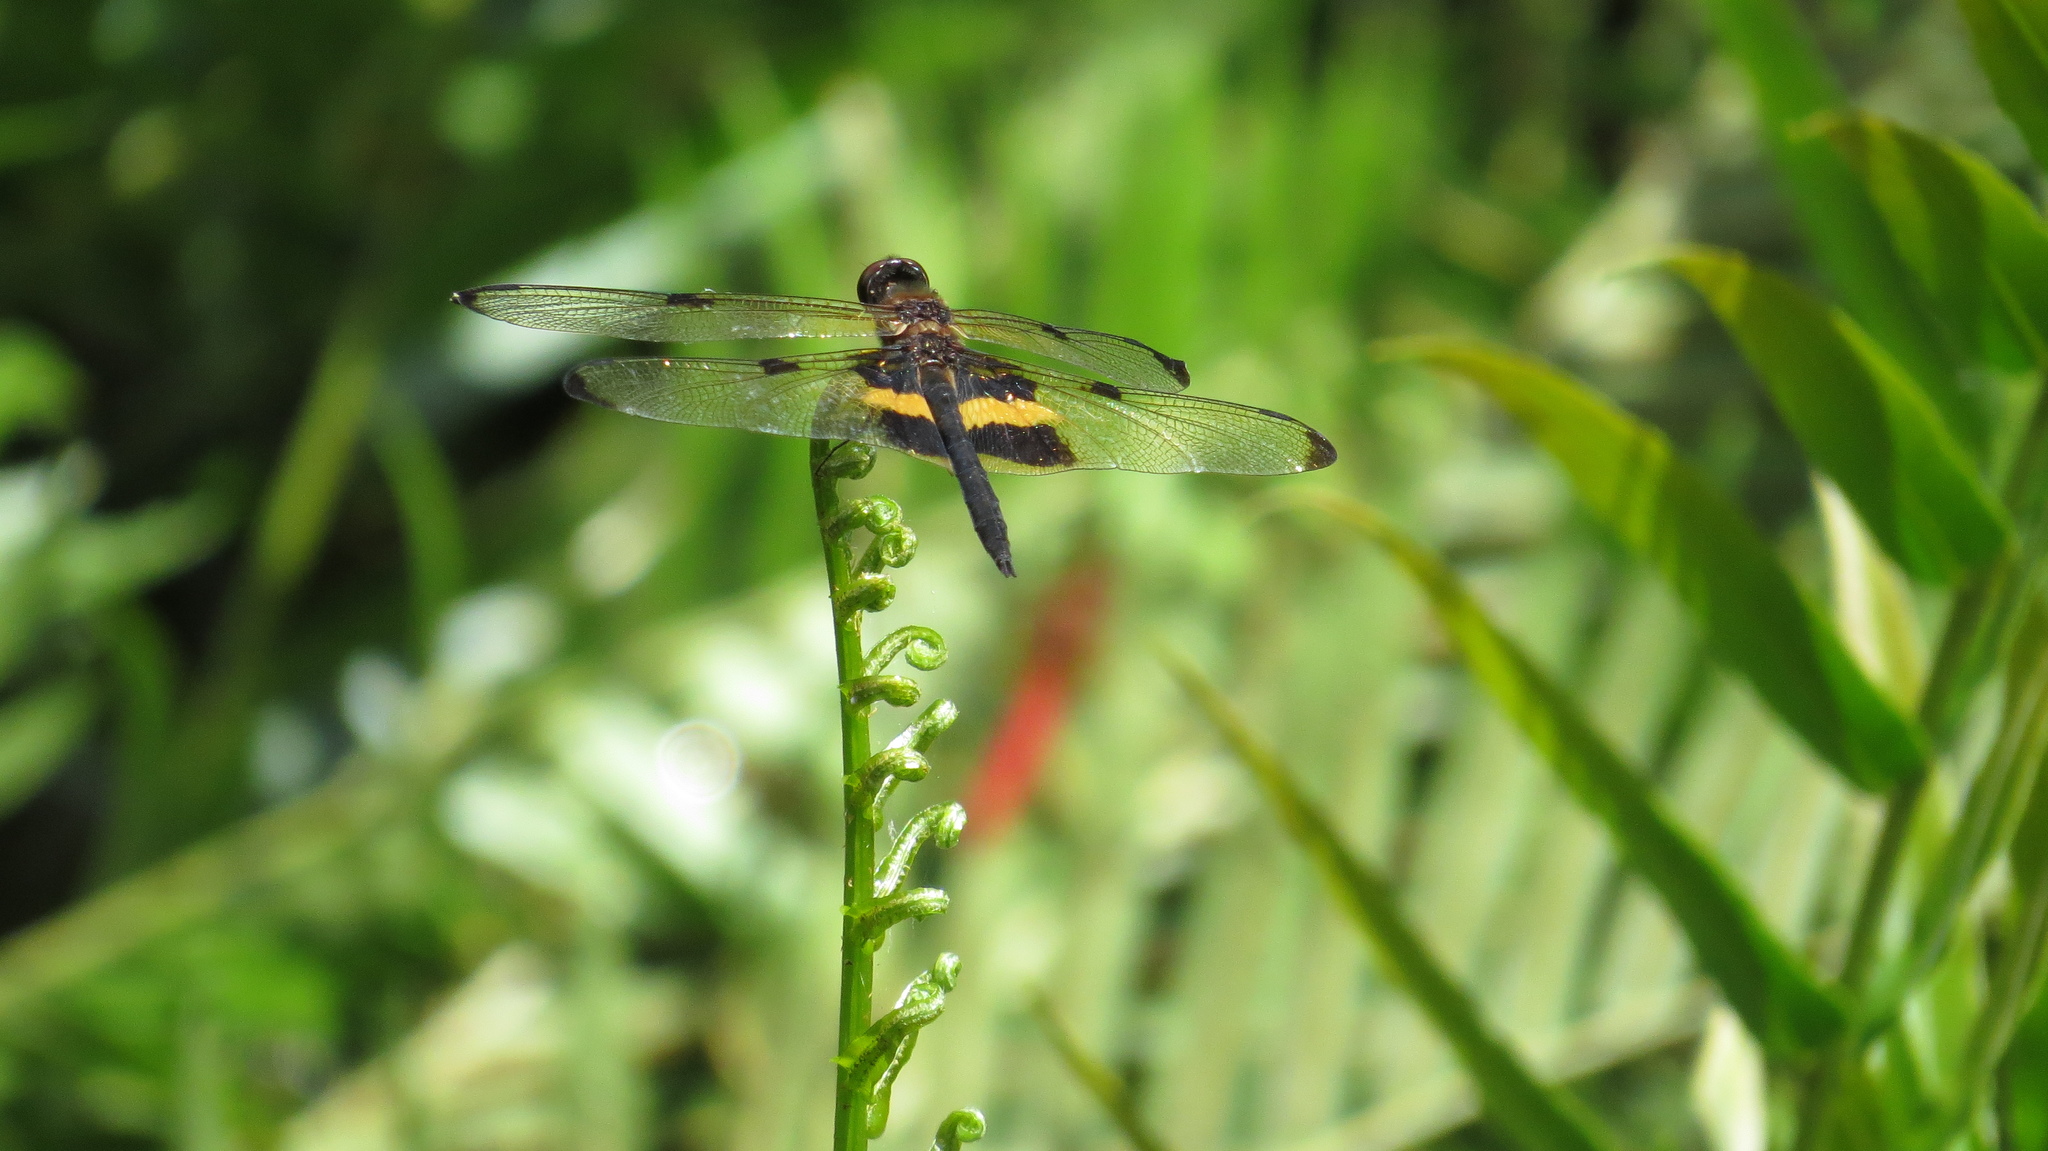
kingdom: Animalia
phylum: Arthropoda
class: Insecta
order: Odonata
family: Libellulidae
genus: Rhyothemis
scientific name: Rhyothemis phyllis
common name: Yellow-barred flutterer
